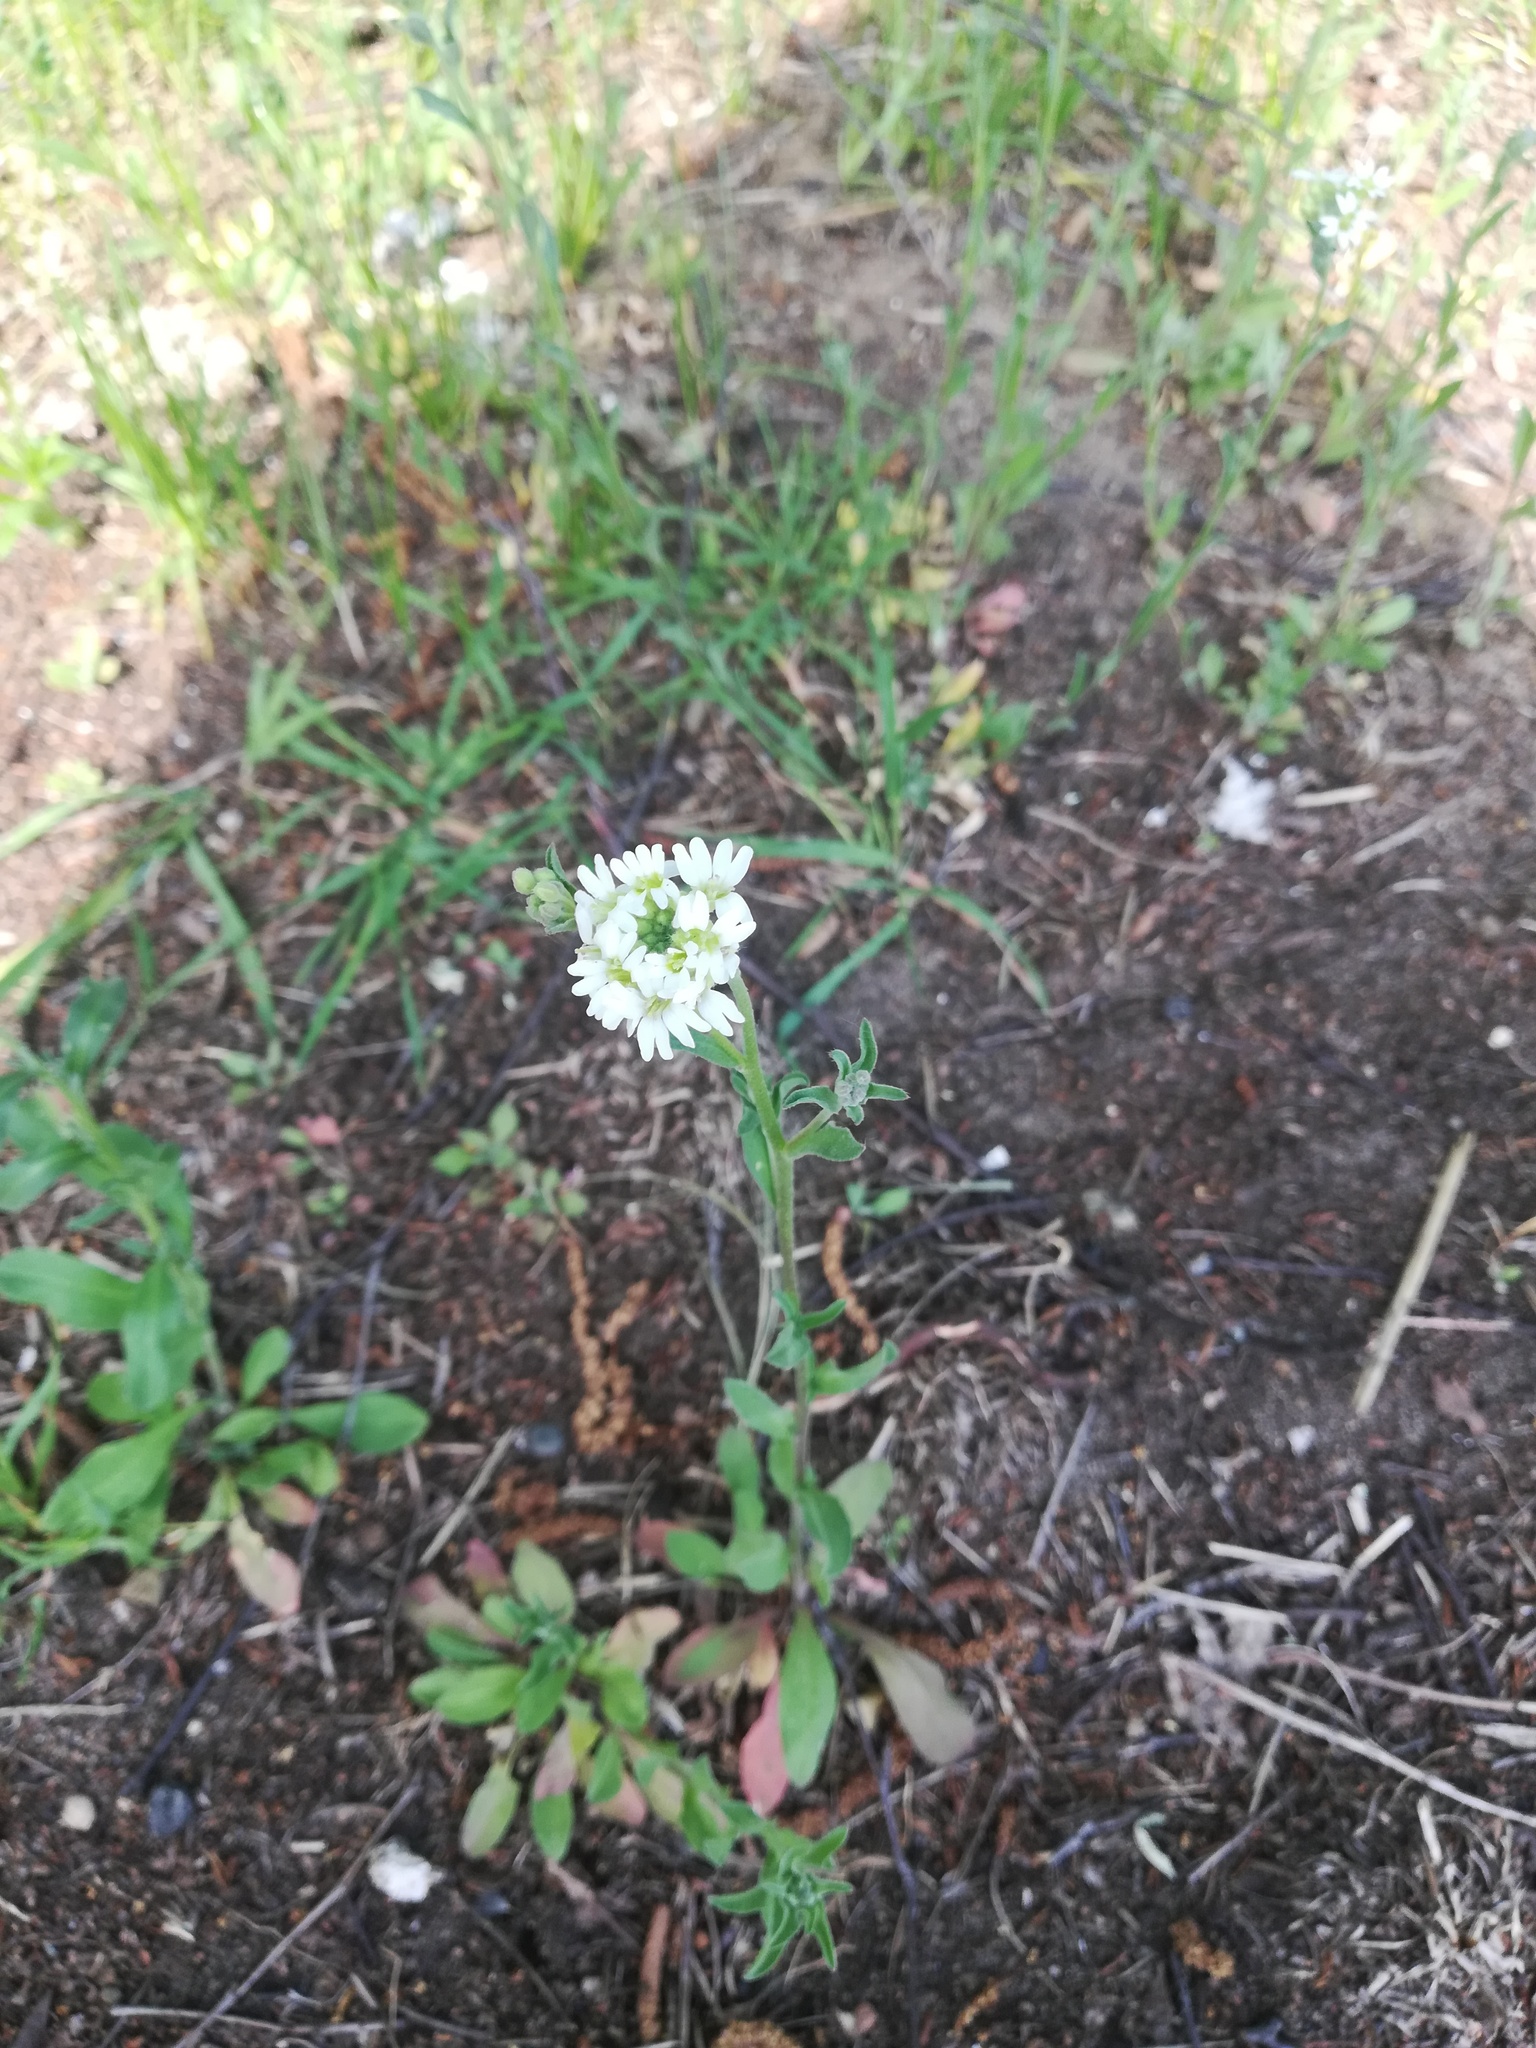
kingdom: Plantae
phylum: Tracheophyta
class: Magnoliopsida
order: Brassicales
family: Brassicaceae
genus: Berteroa
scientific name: Berteroa incana
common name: Hoary alison
